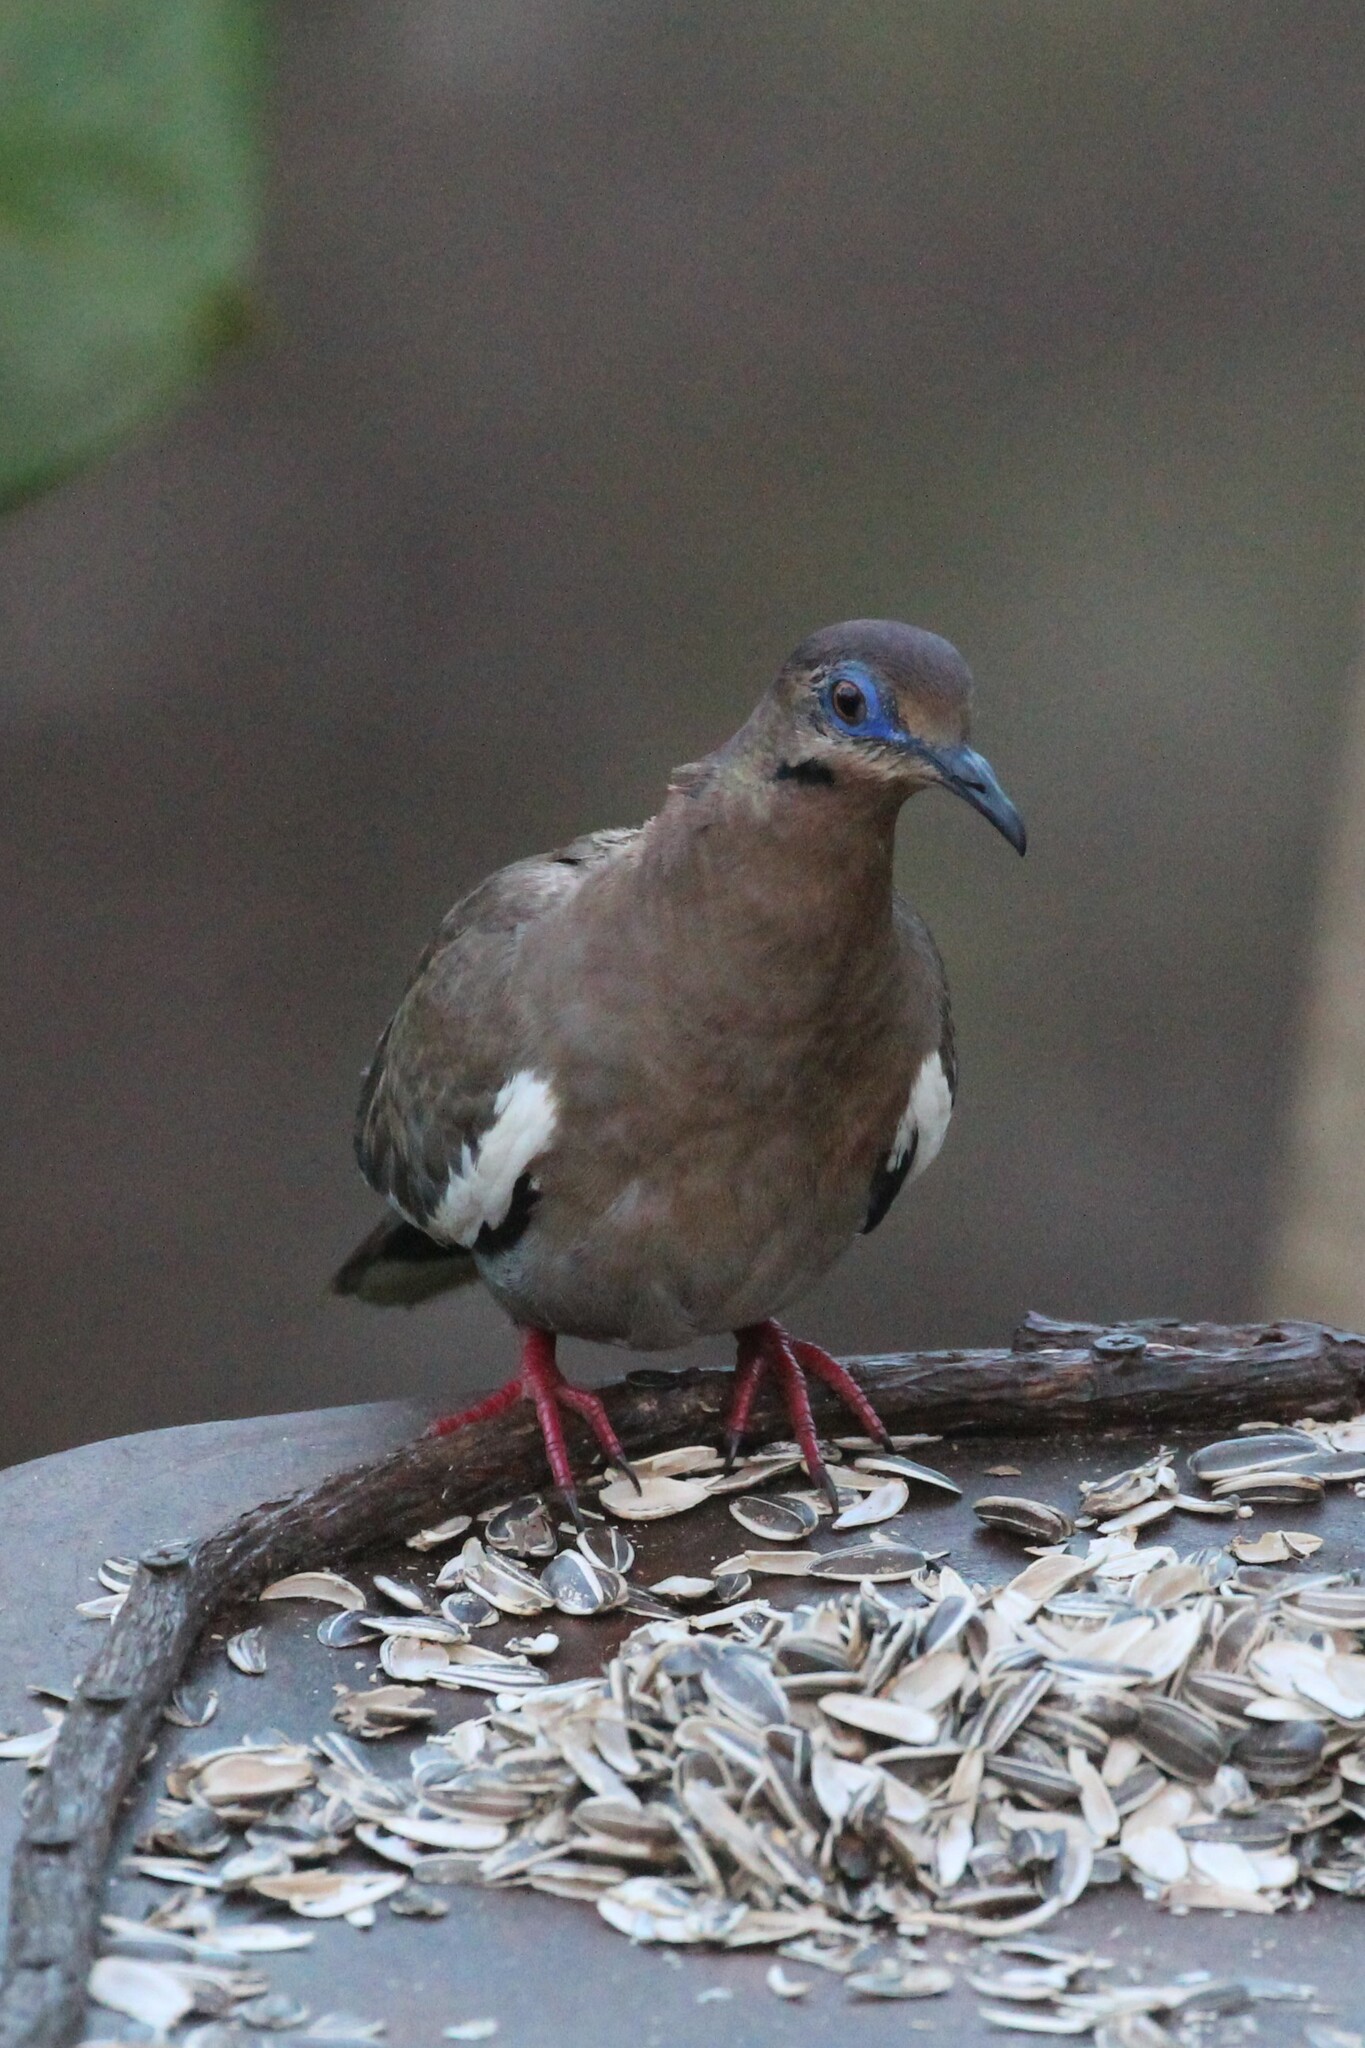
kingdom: Animalia
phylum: Chordata
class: Aves
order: Columbiformes
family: Columbidae
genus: Zenaida
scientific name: Zenaida asiatica
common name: White-winged dove
